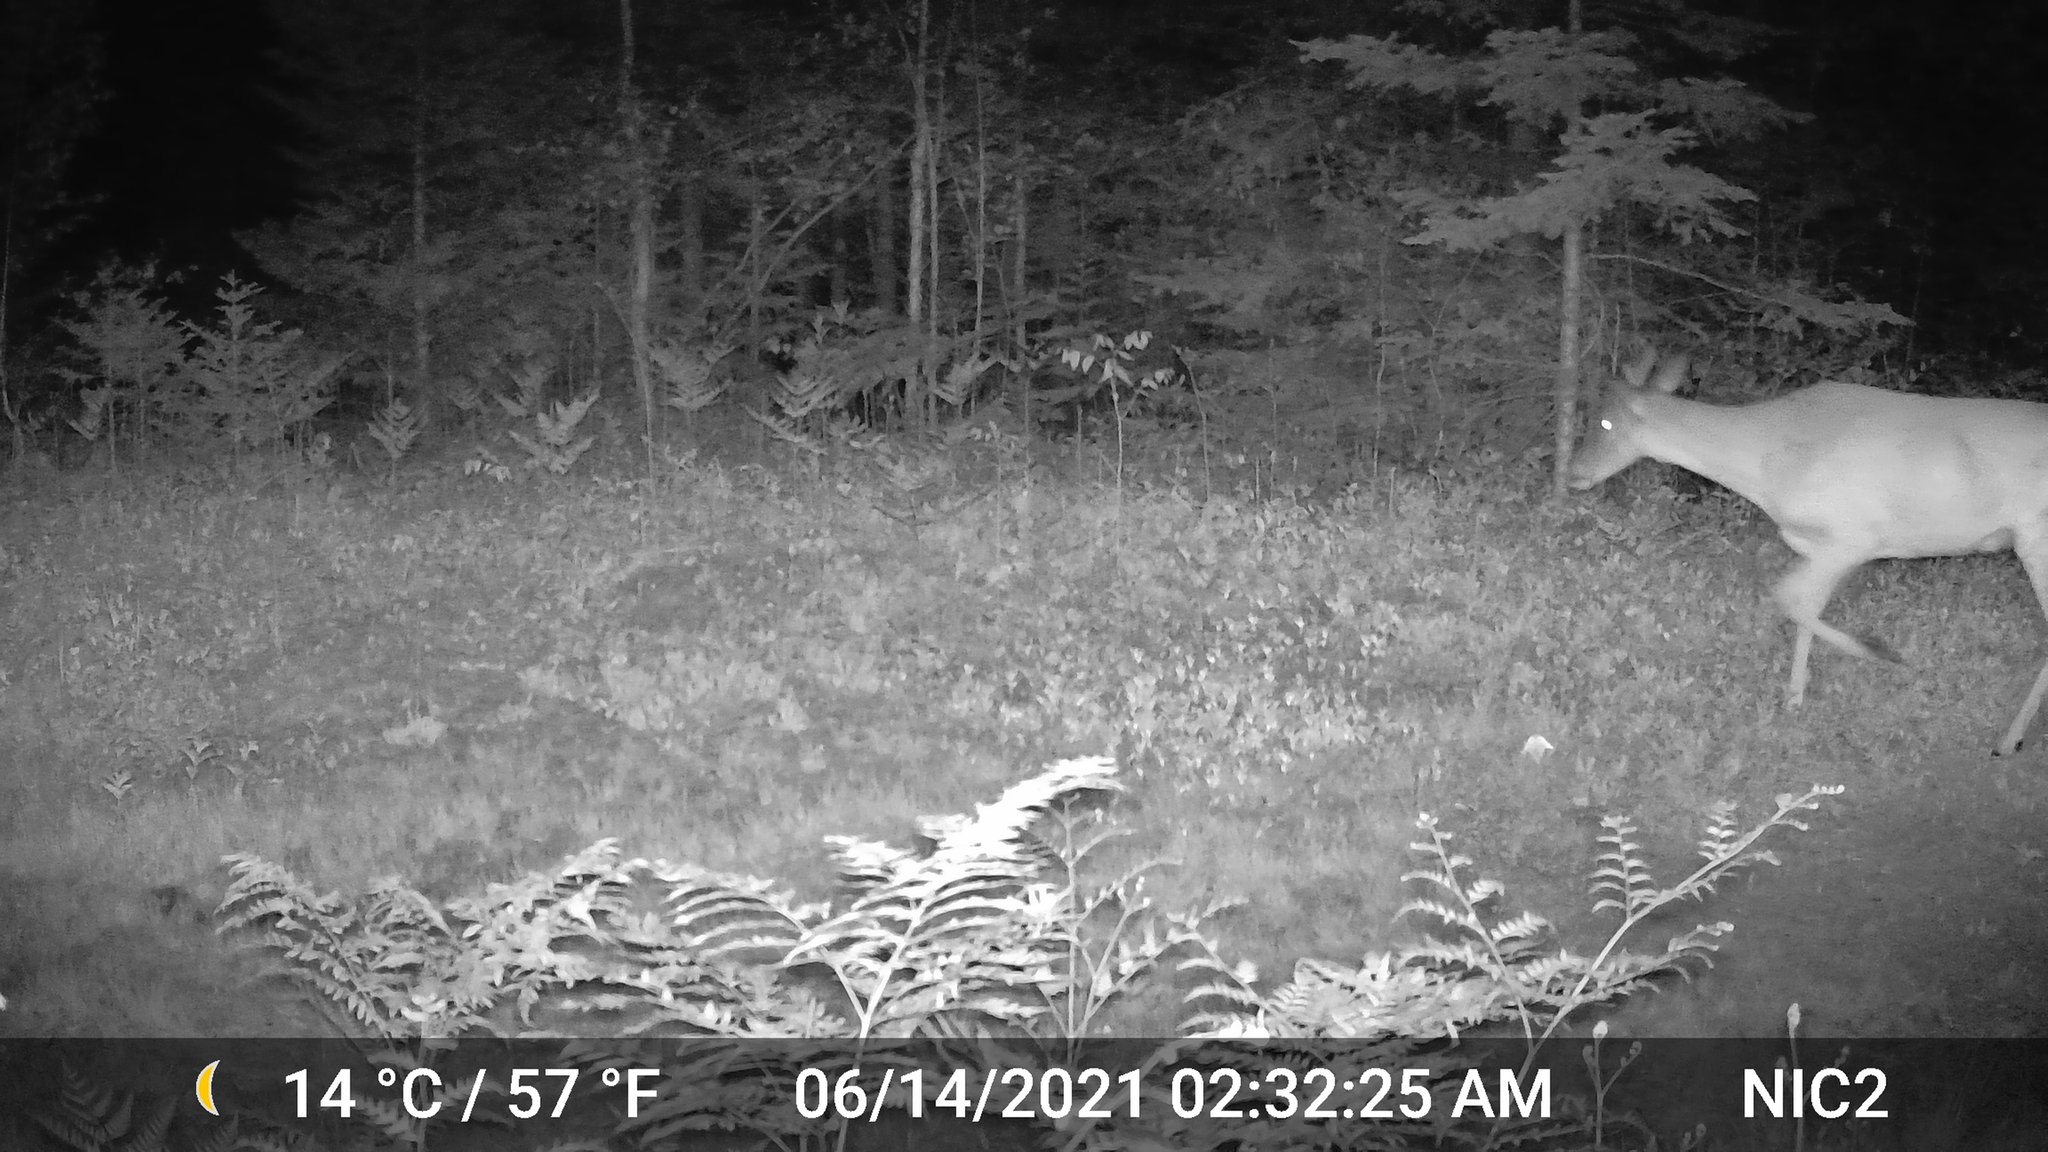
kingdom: Animalia
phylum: Chordata
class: Mammalia
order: Artiodactyla
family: Cervidae
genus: Odocoileus
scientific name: Odocoileus virginianus
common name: White-tailed deer
